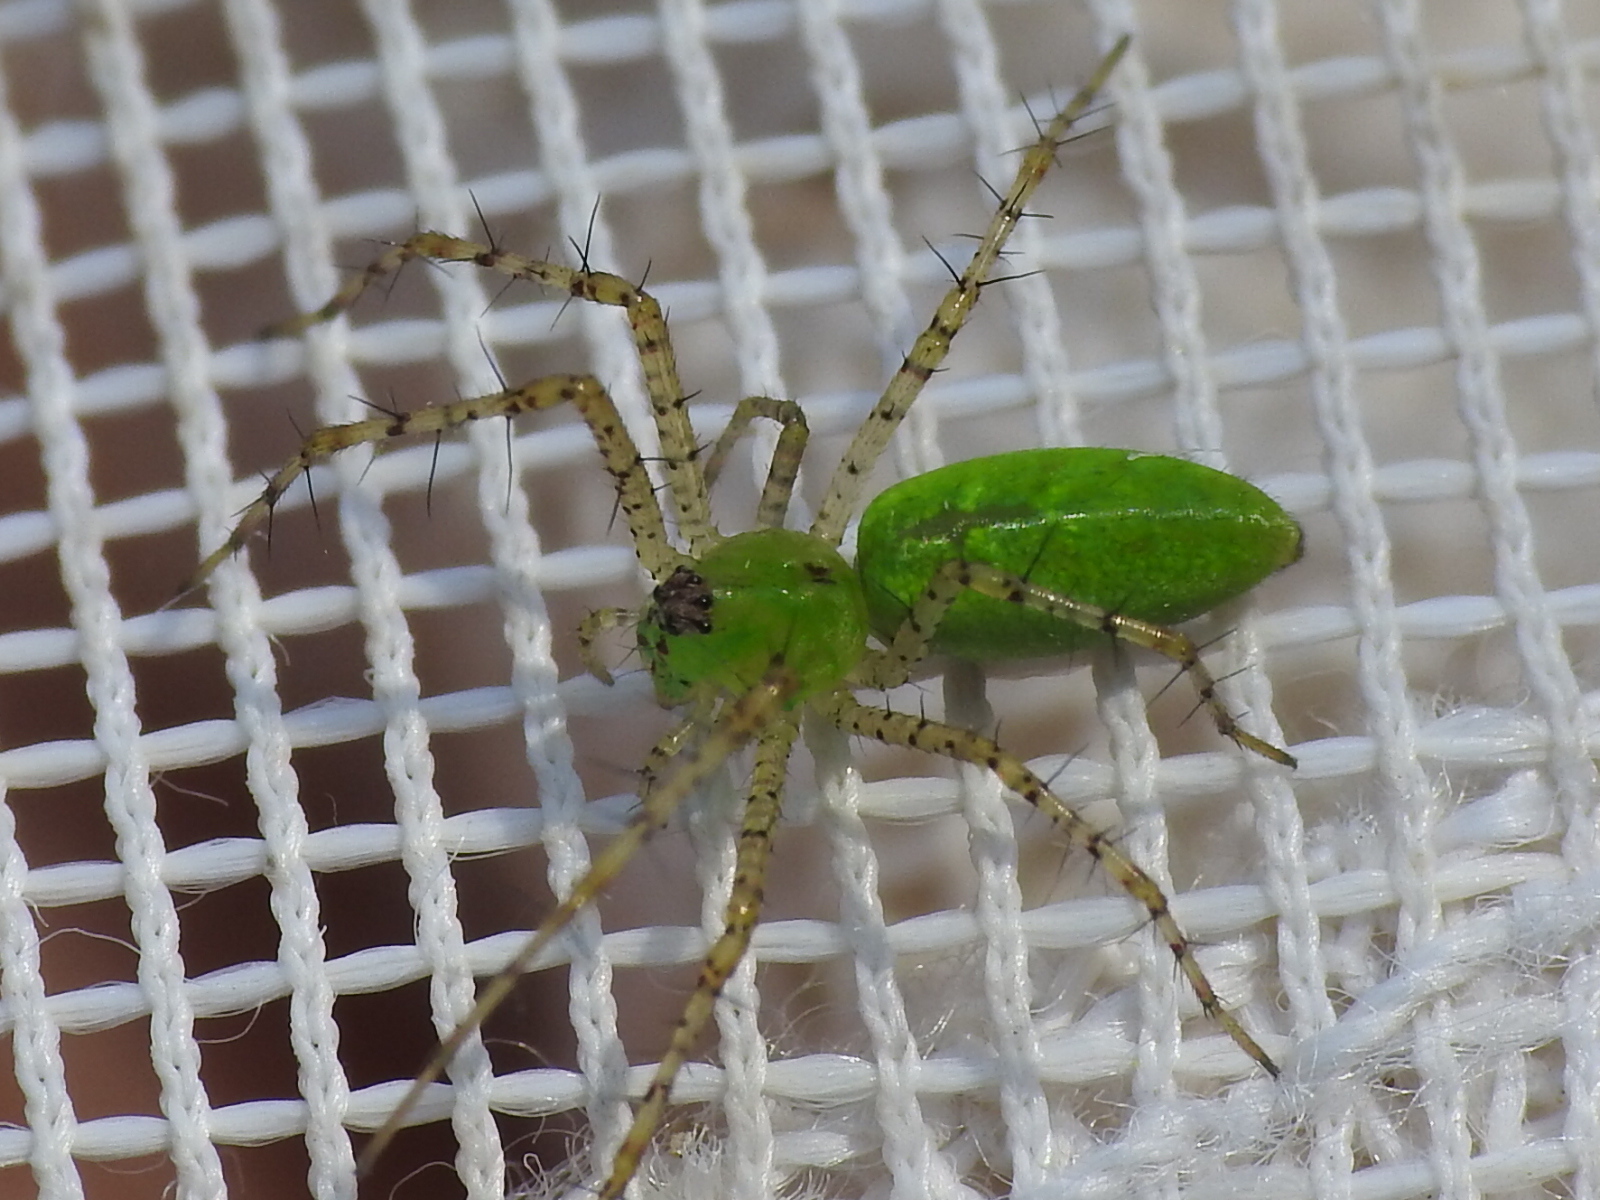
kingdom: Animalia
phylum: Arthropoda
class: Arachnida
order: Araneae
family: Oxyopidae
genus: Peucetia
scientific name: Peucetia viridans
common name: Lynx spiders
